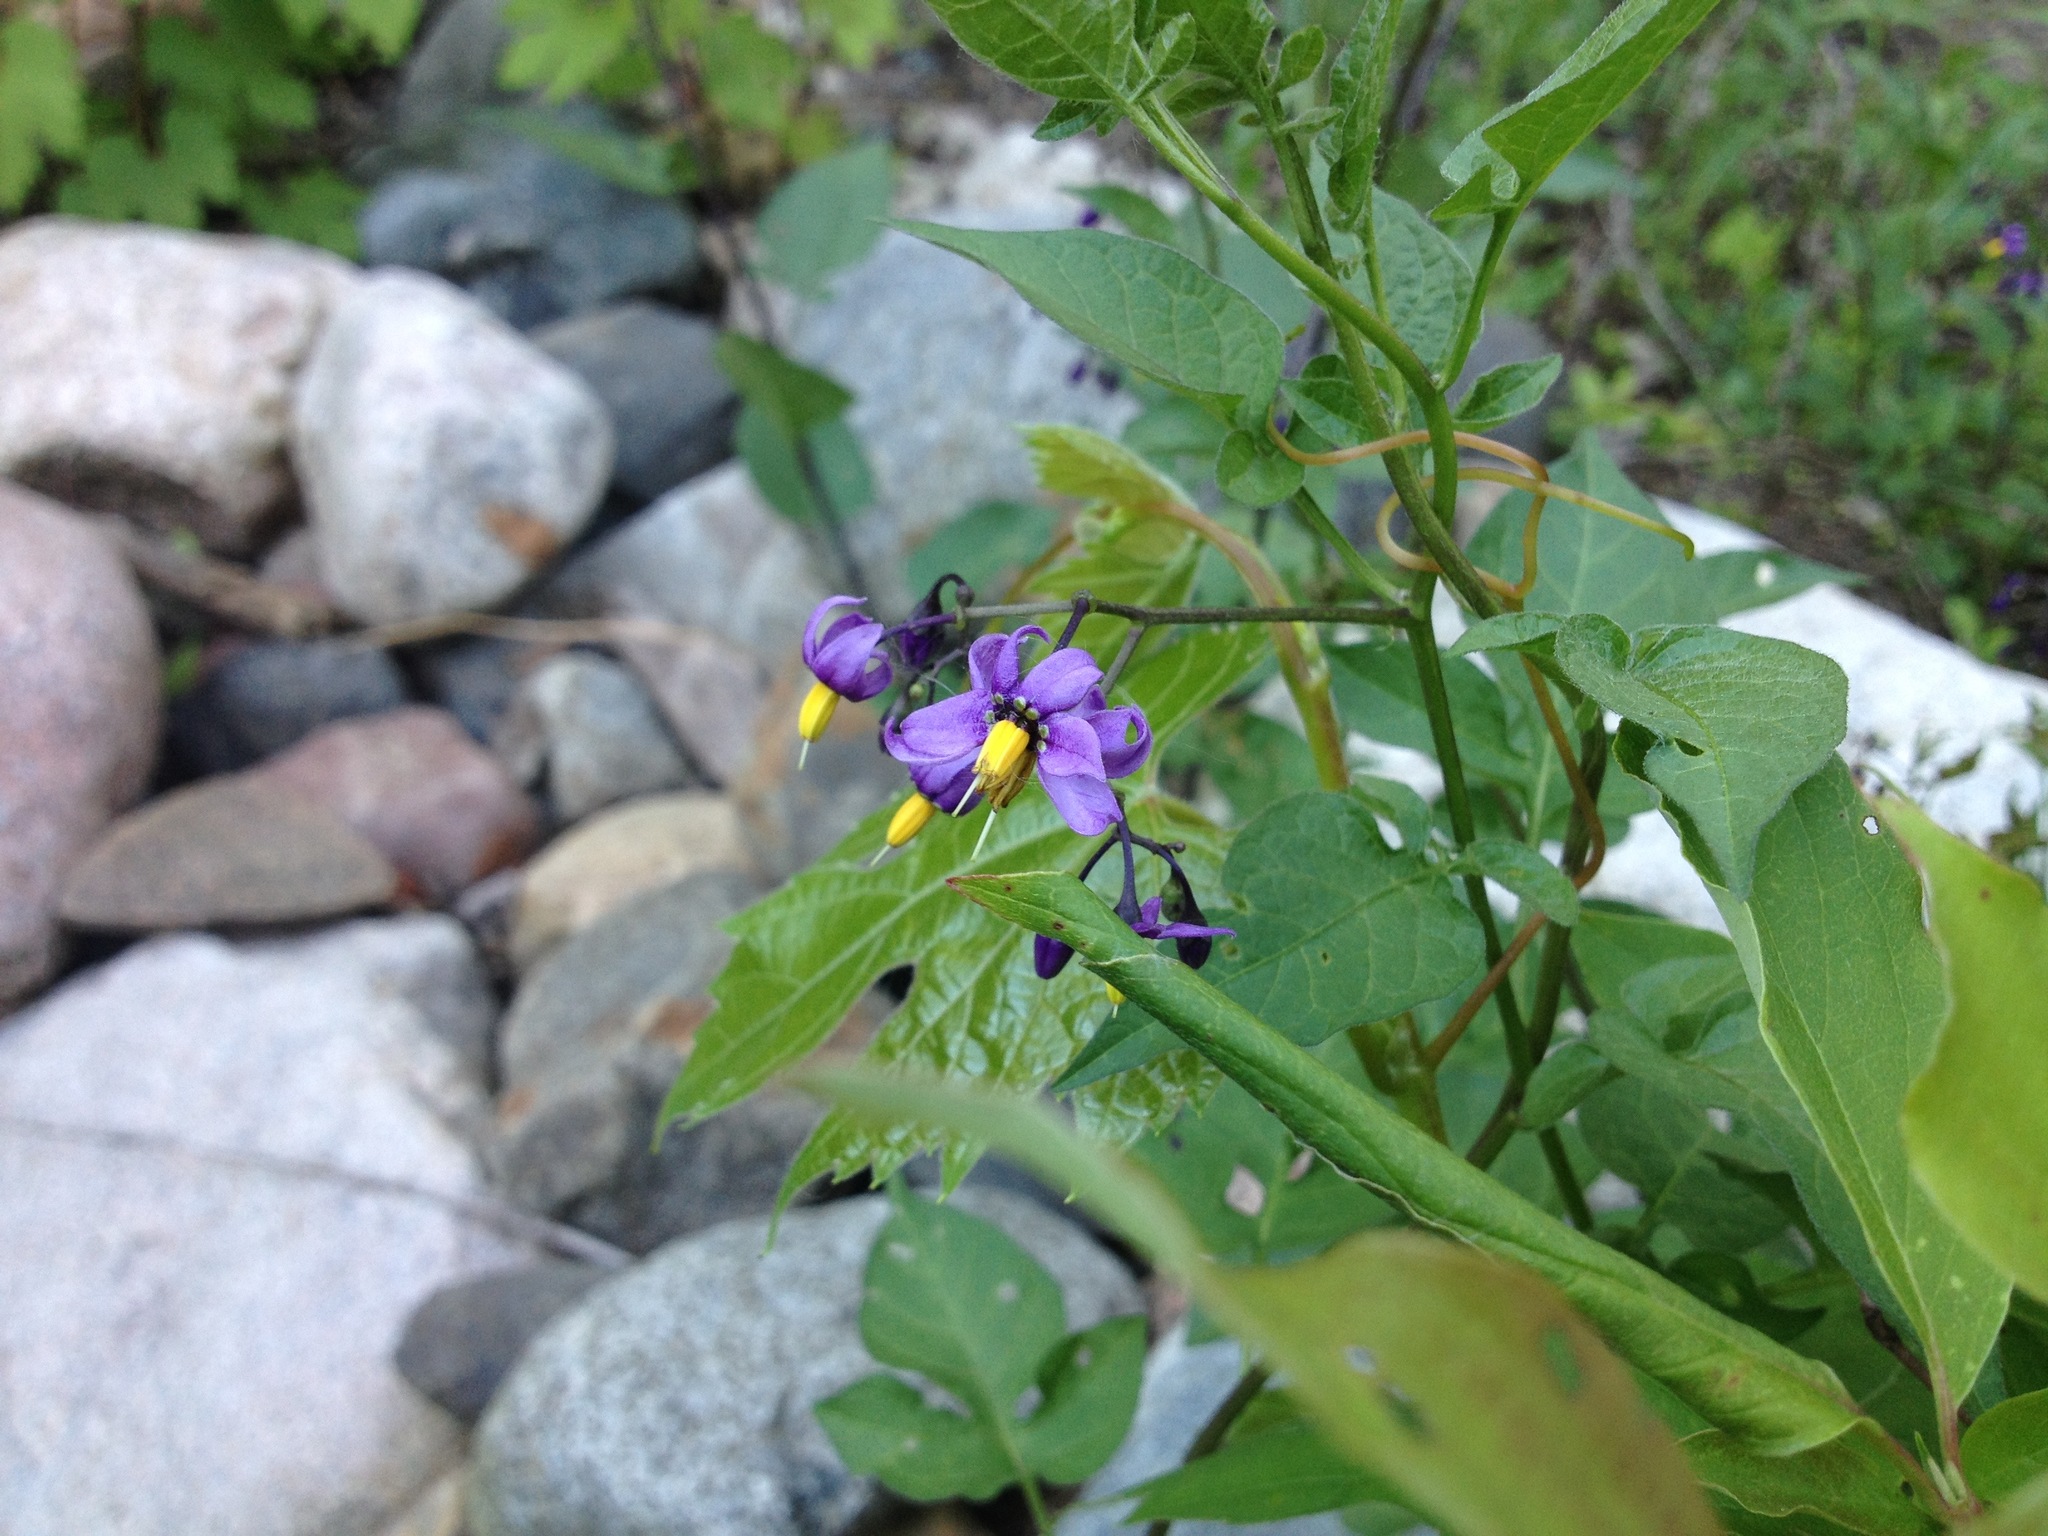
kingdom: Plantae
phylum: Tracheophyta
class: Magnoliopsida
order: Solanales
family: Solanaceae
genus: Solanum
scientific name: Solanum dulcamara
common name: Climbing nightshade
